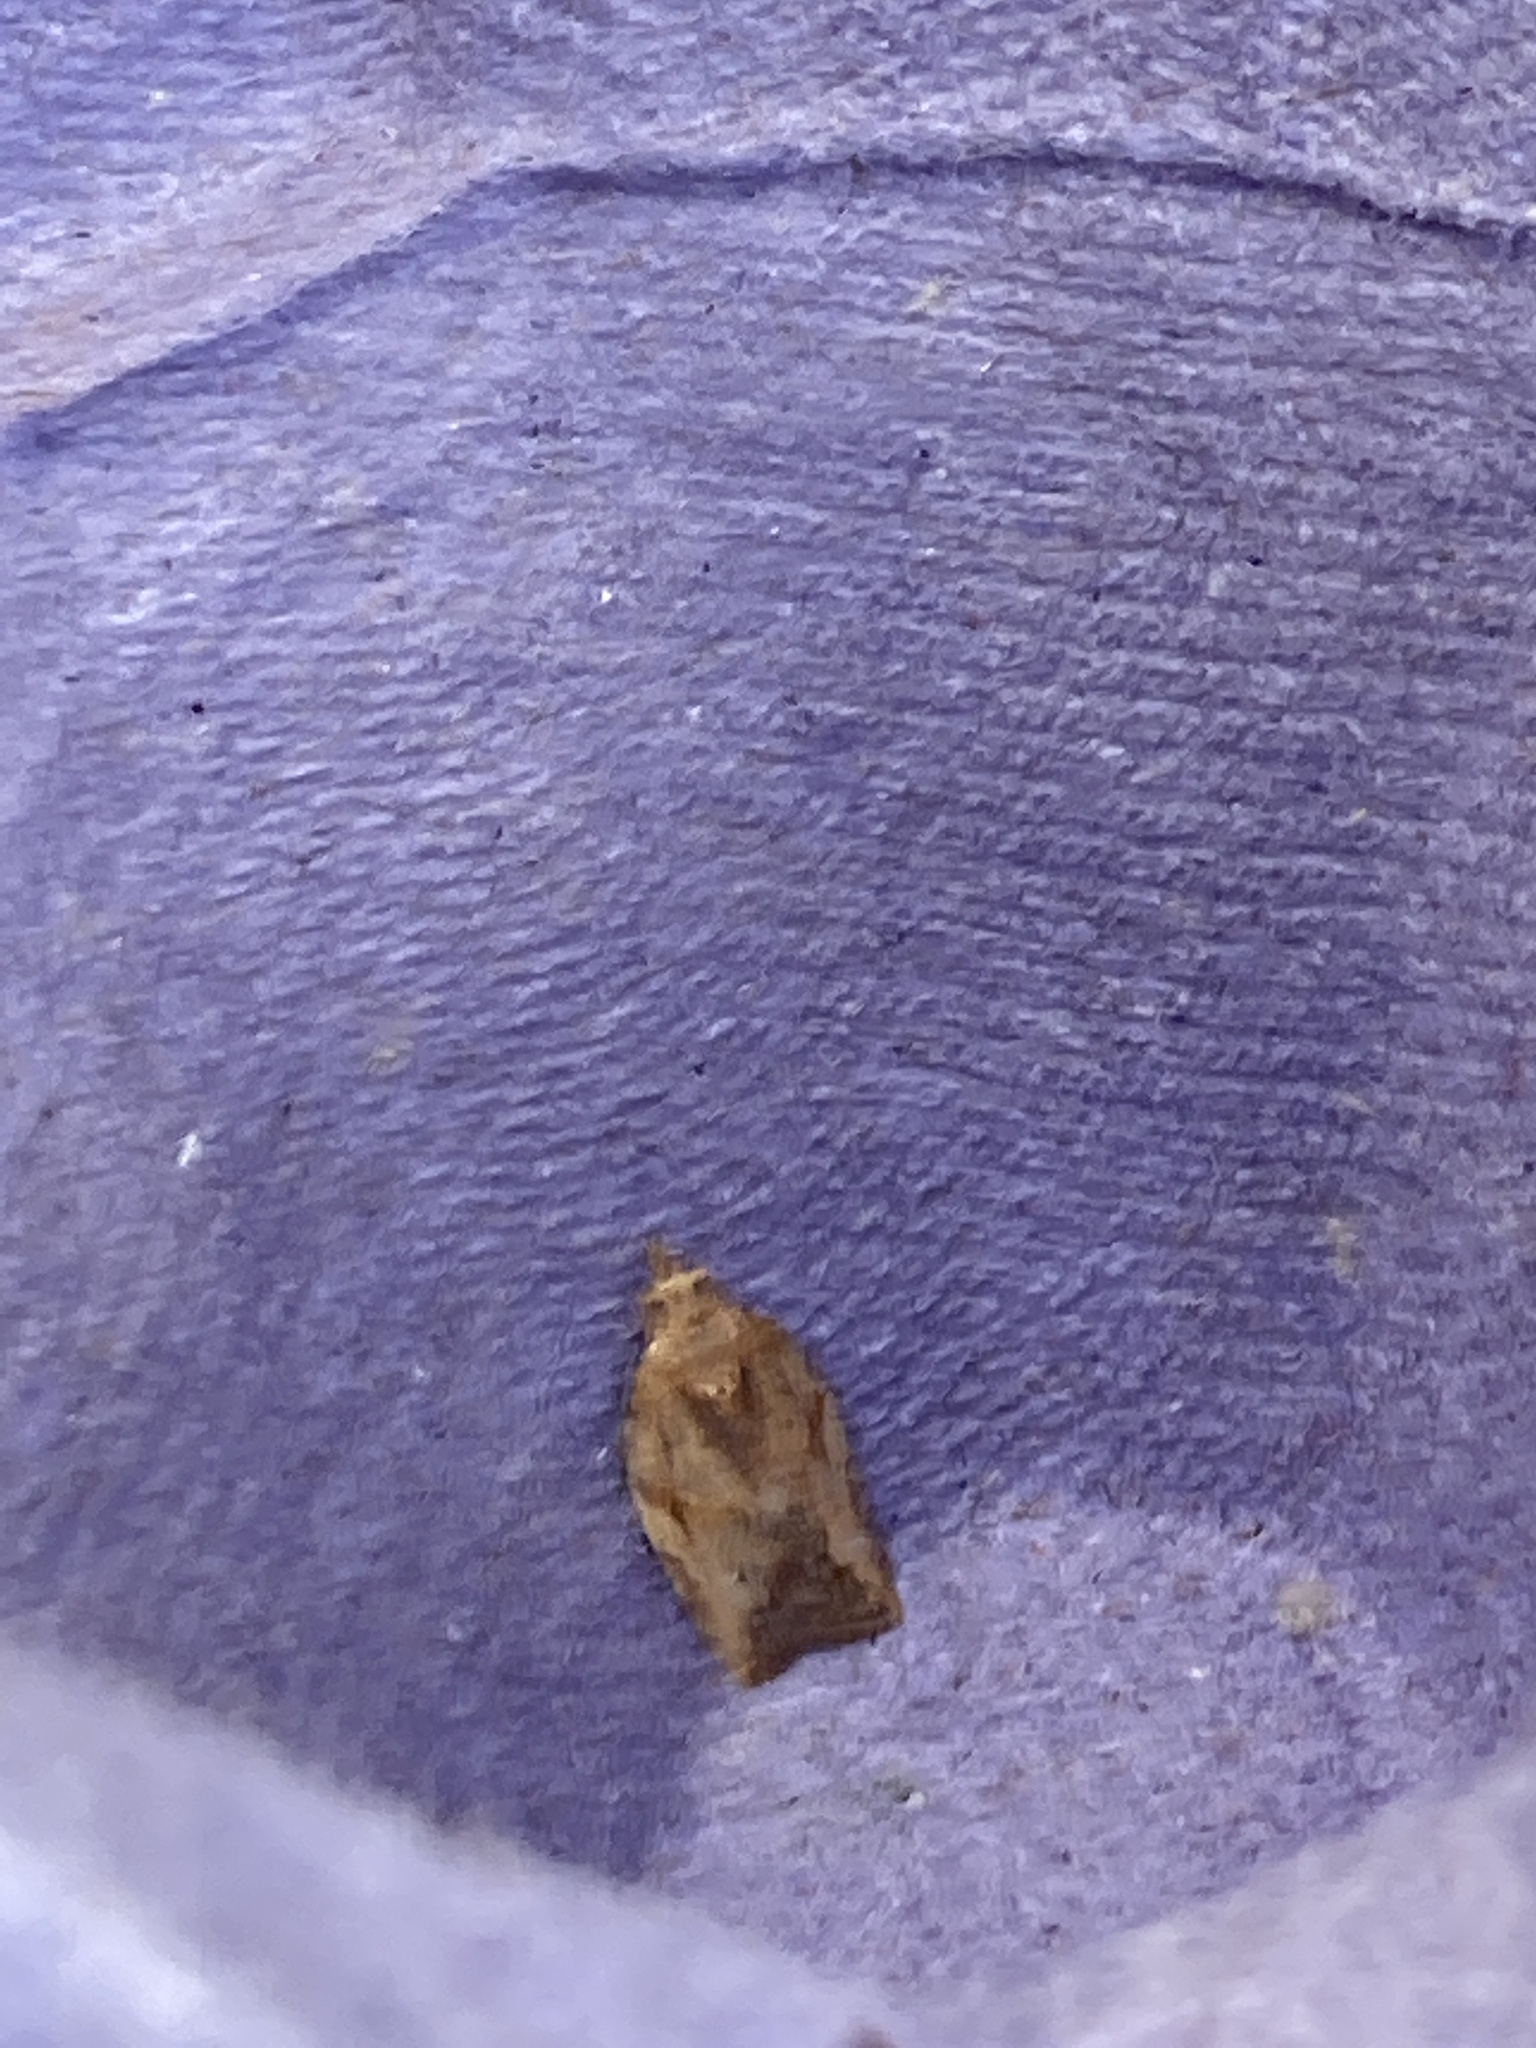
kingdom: Animalia
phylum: Arthropoda
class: Insecta
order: Lepidoptera
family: Tortricidae
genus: Epiphyas
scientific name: Epiphyas postvittana
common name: Light brown apple moth
